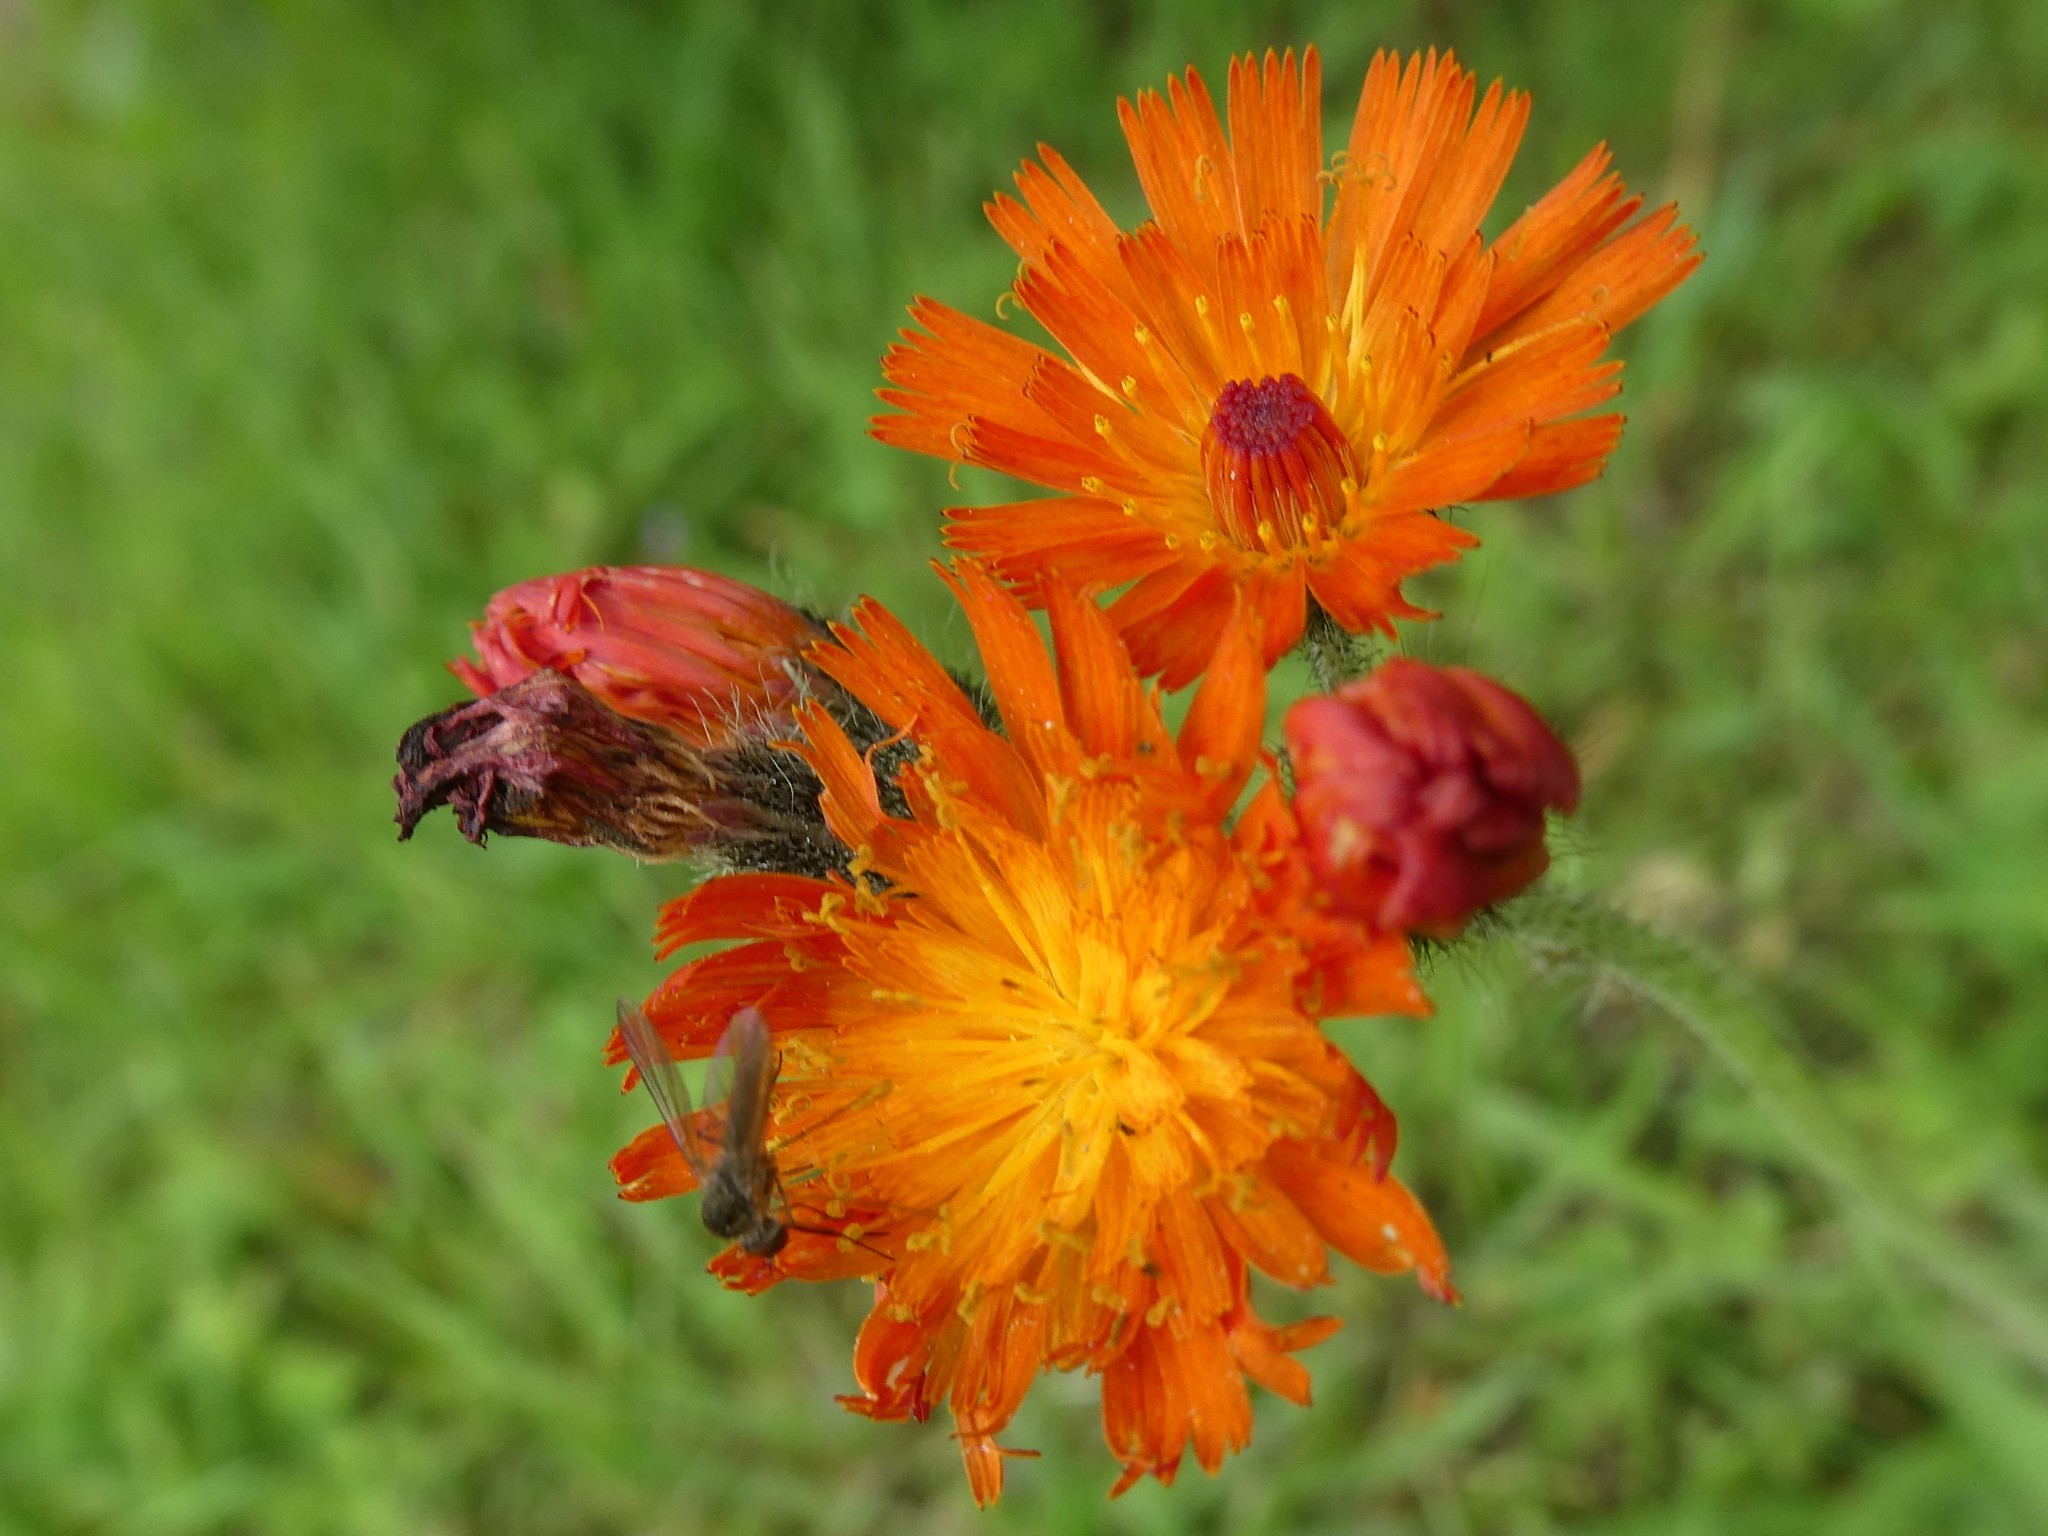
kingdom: Plantae
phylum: Tracheophyta
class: Magnoliopsida
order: Asterales
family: Asteraceae
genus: Pilosella
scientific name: Pilosella aurantiaca
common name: Fox-and-cubs
